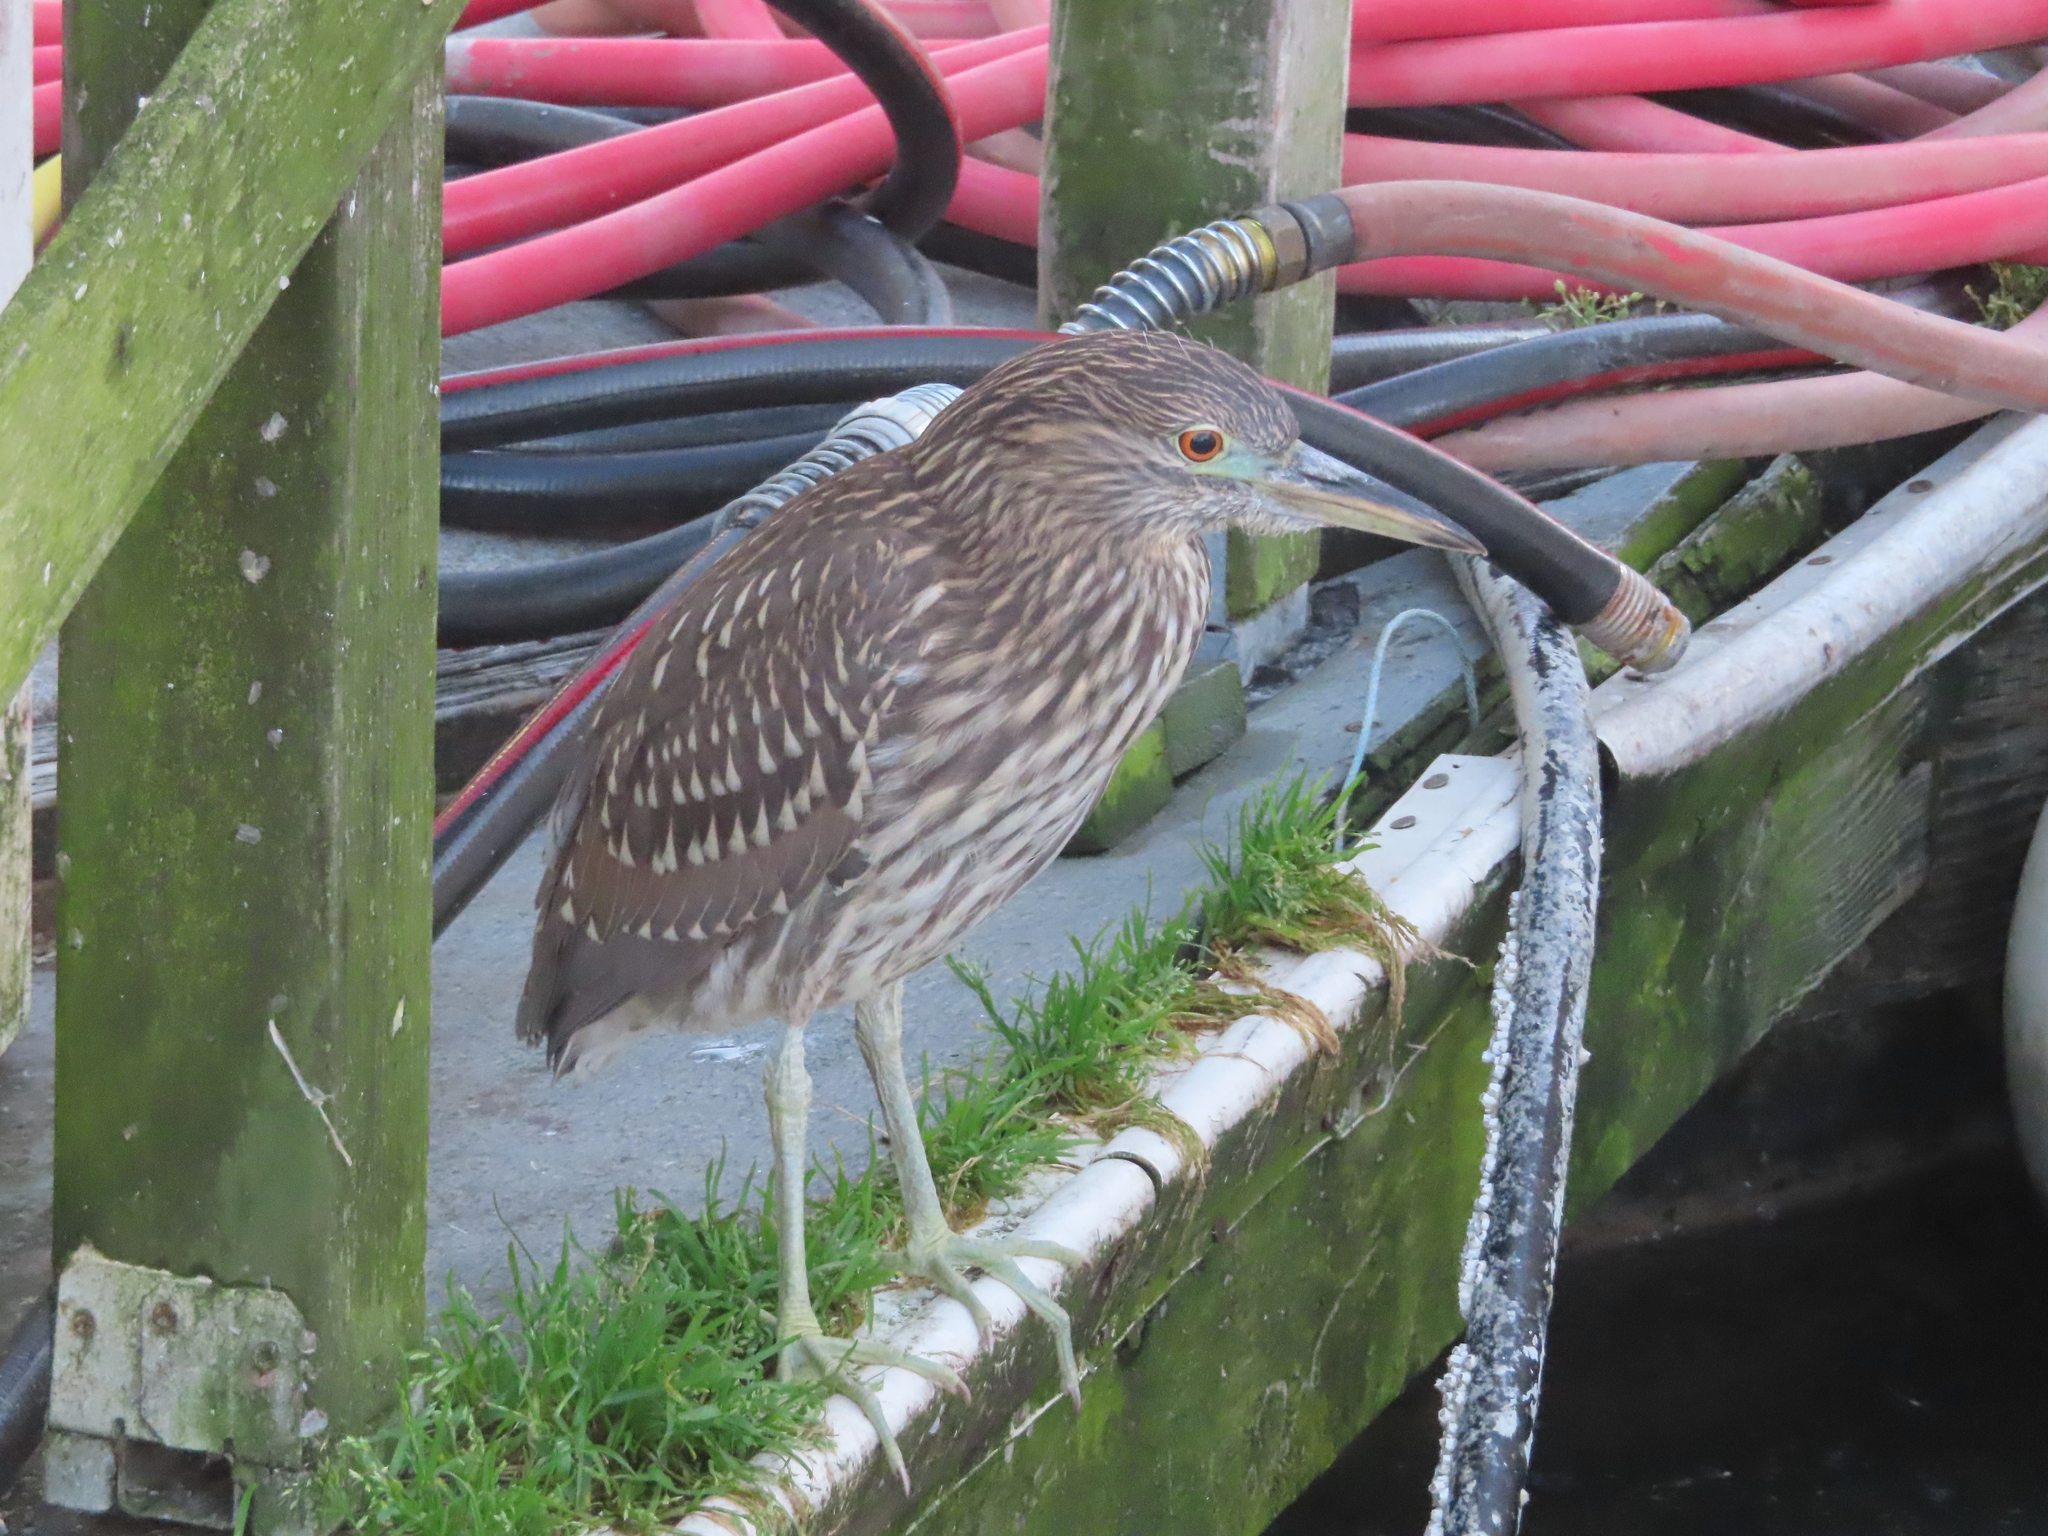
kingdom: Animalia
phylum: Chordata
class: Aves
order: Pelecaniformes
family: Ardeidae
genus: Nycticorax
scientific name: Nycticorax nycticorax
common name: Black-crowned night heron
